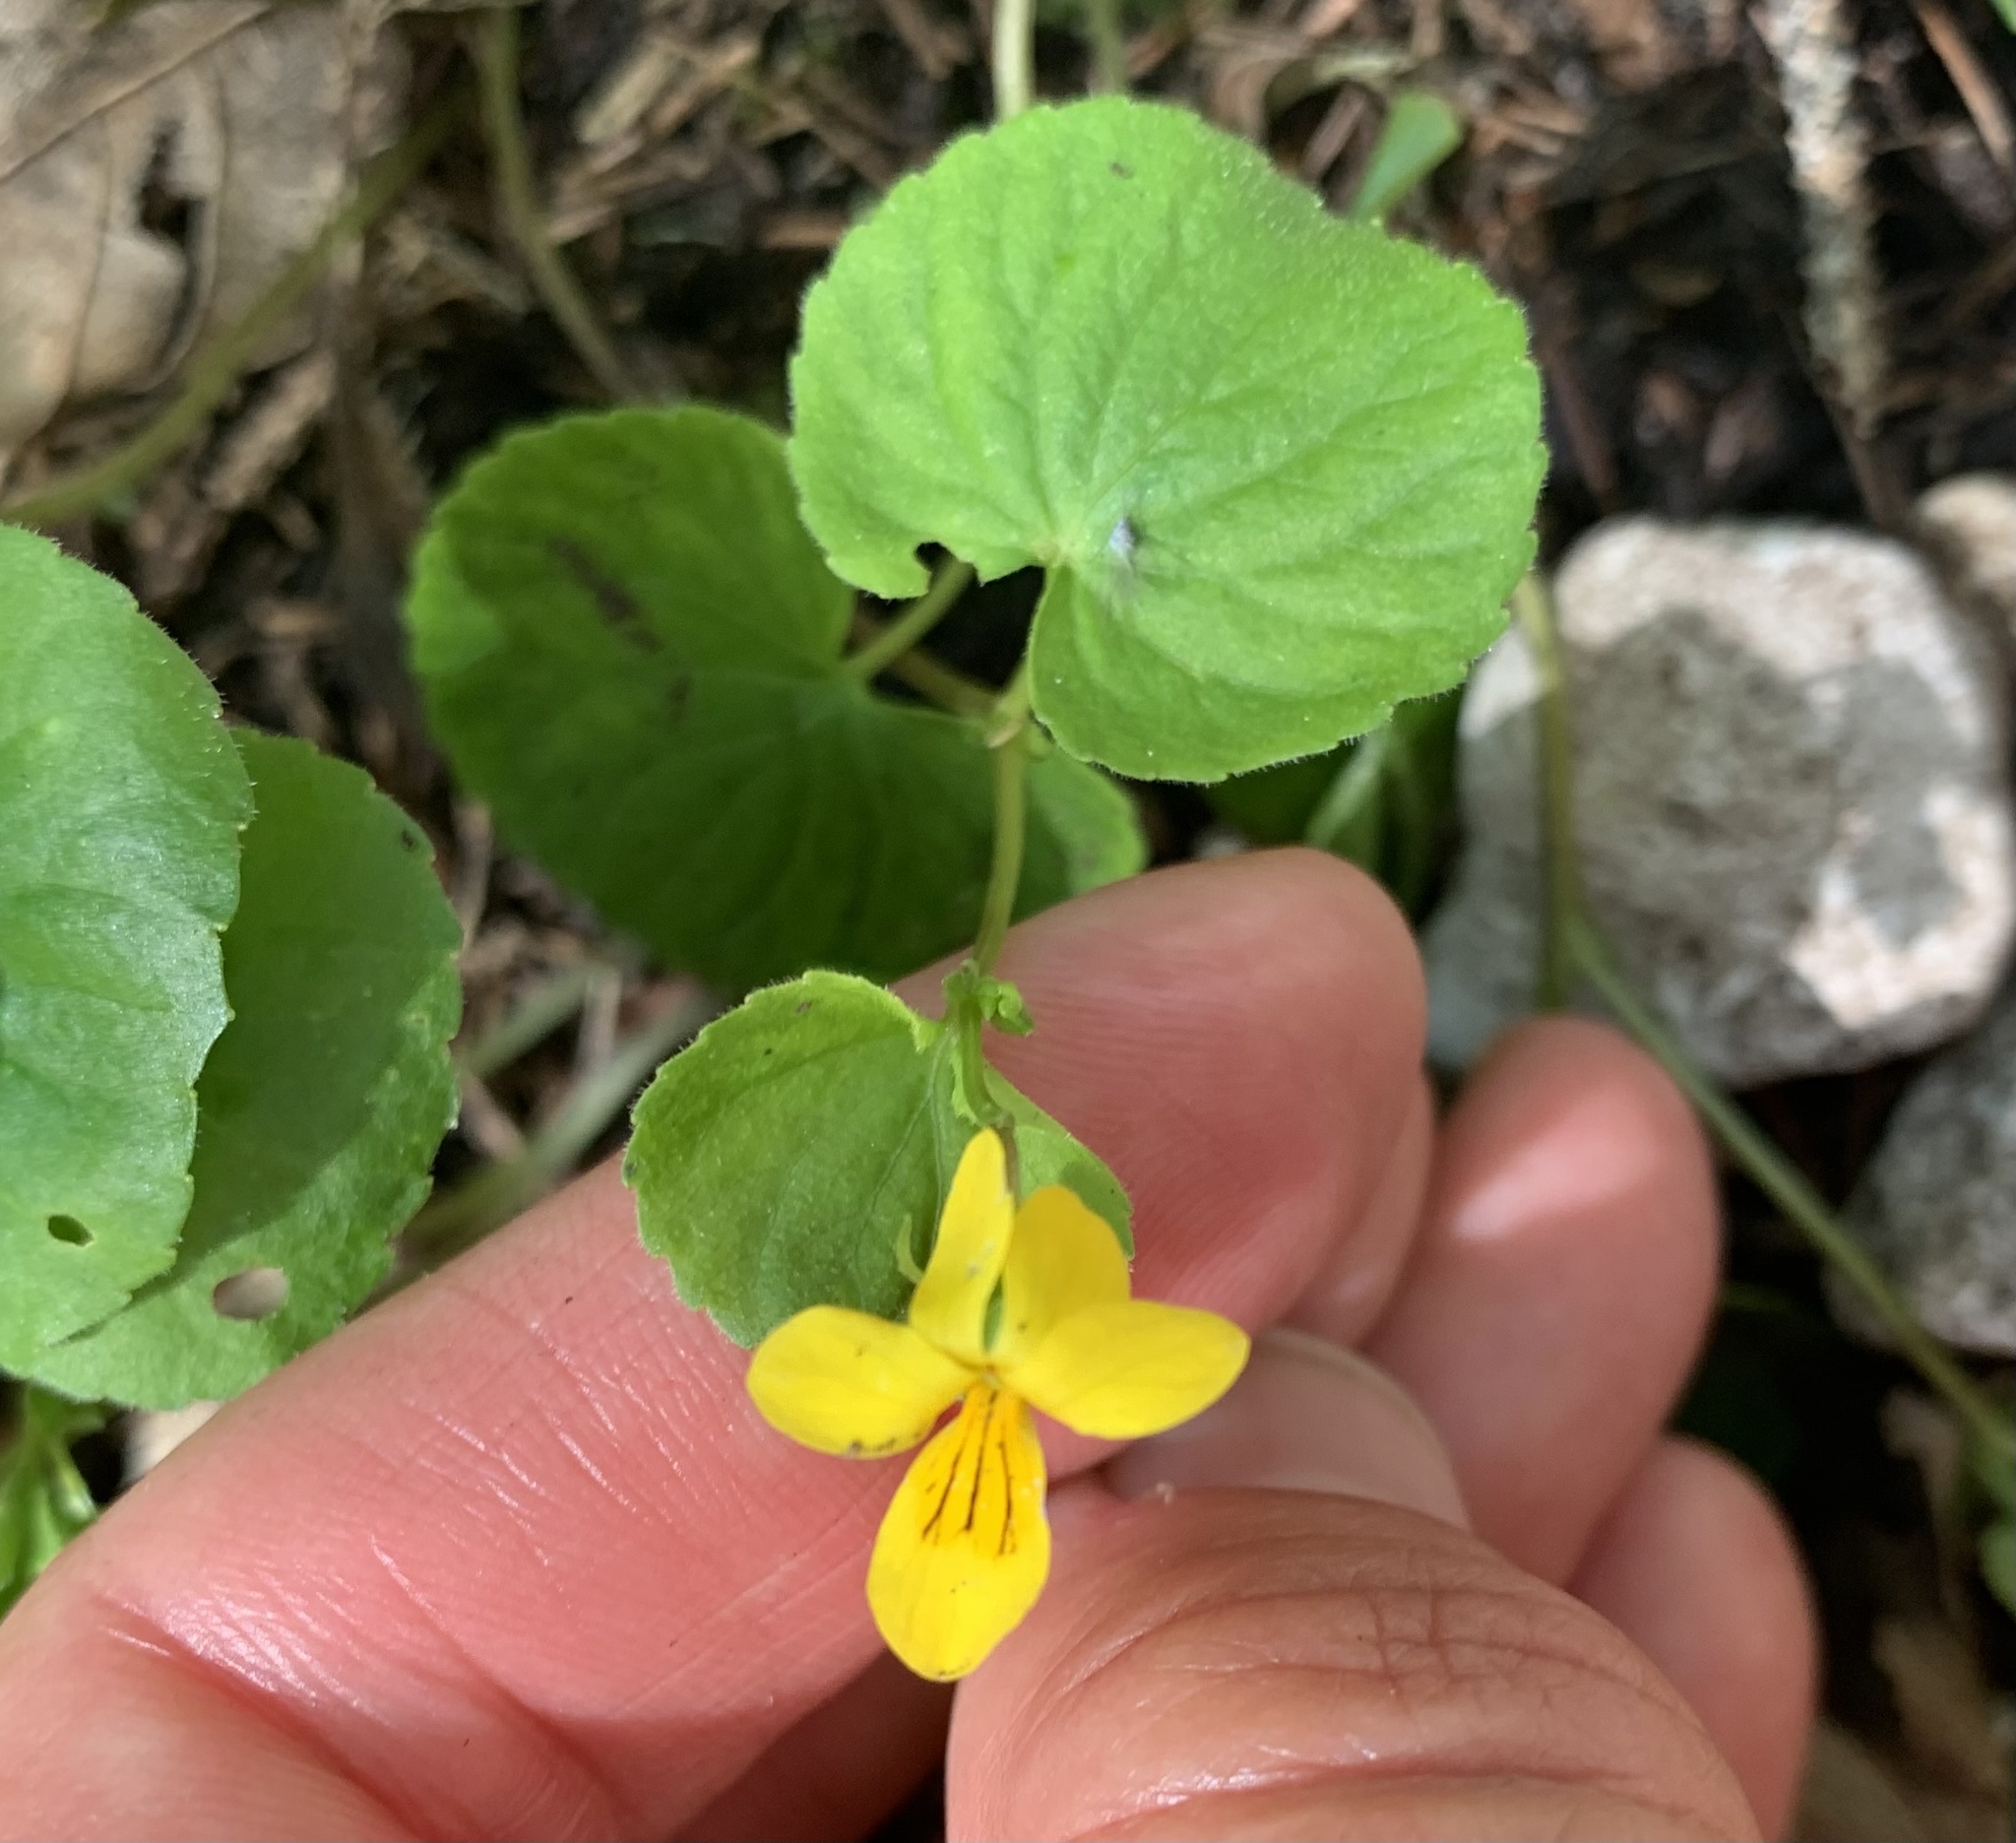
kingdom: Plantae
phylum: Tracheophyta
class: Magnoliopsida
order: Malpighiales
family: Violaceae
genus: Viola
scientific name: Viola biflora
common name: Alpine yellow violet
